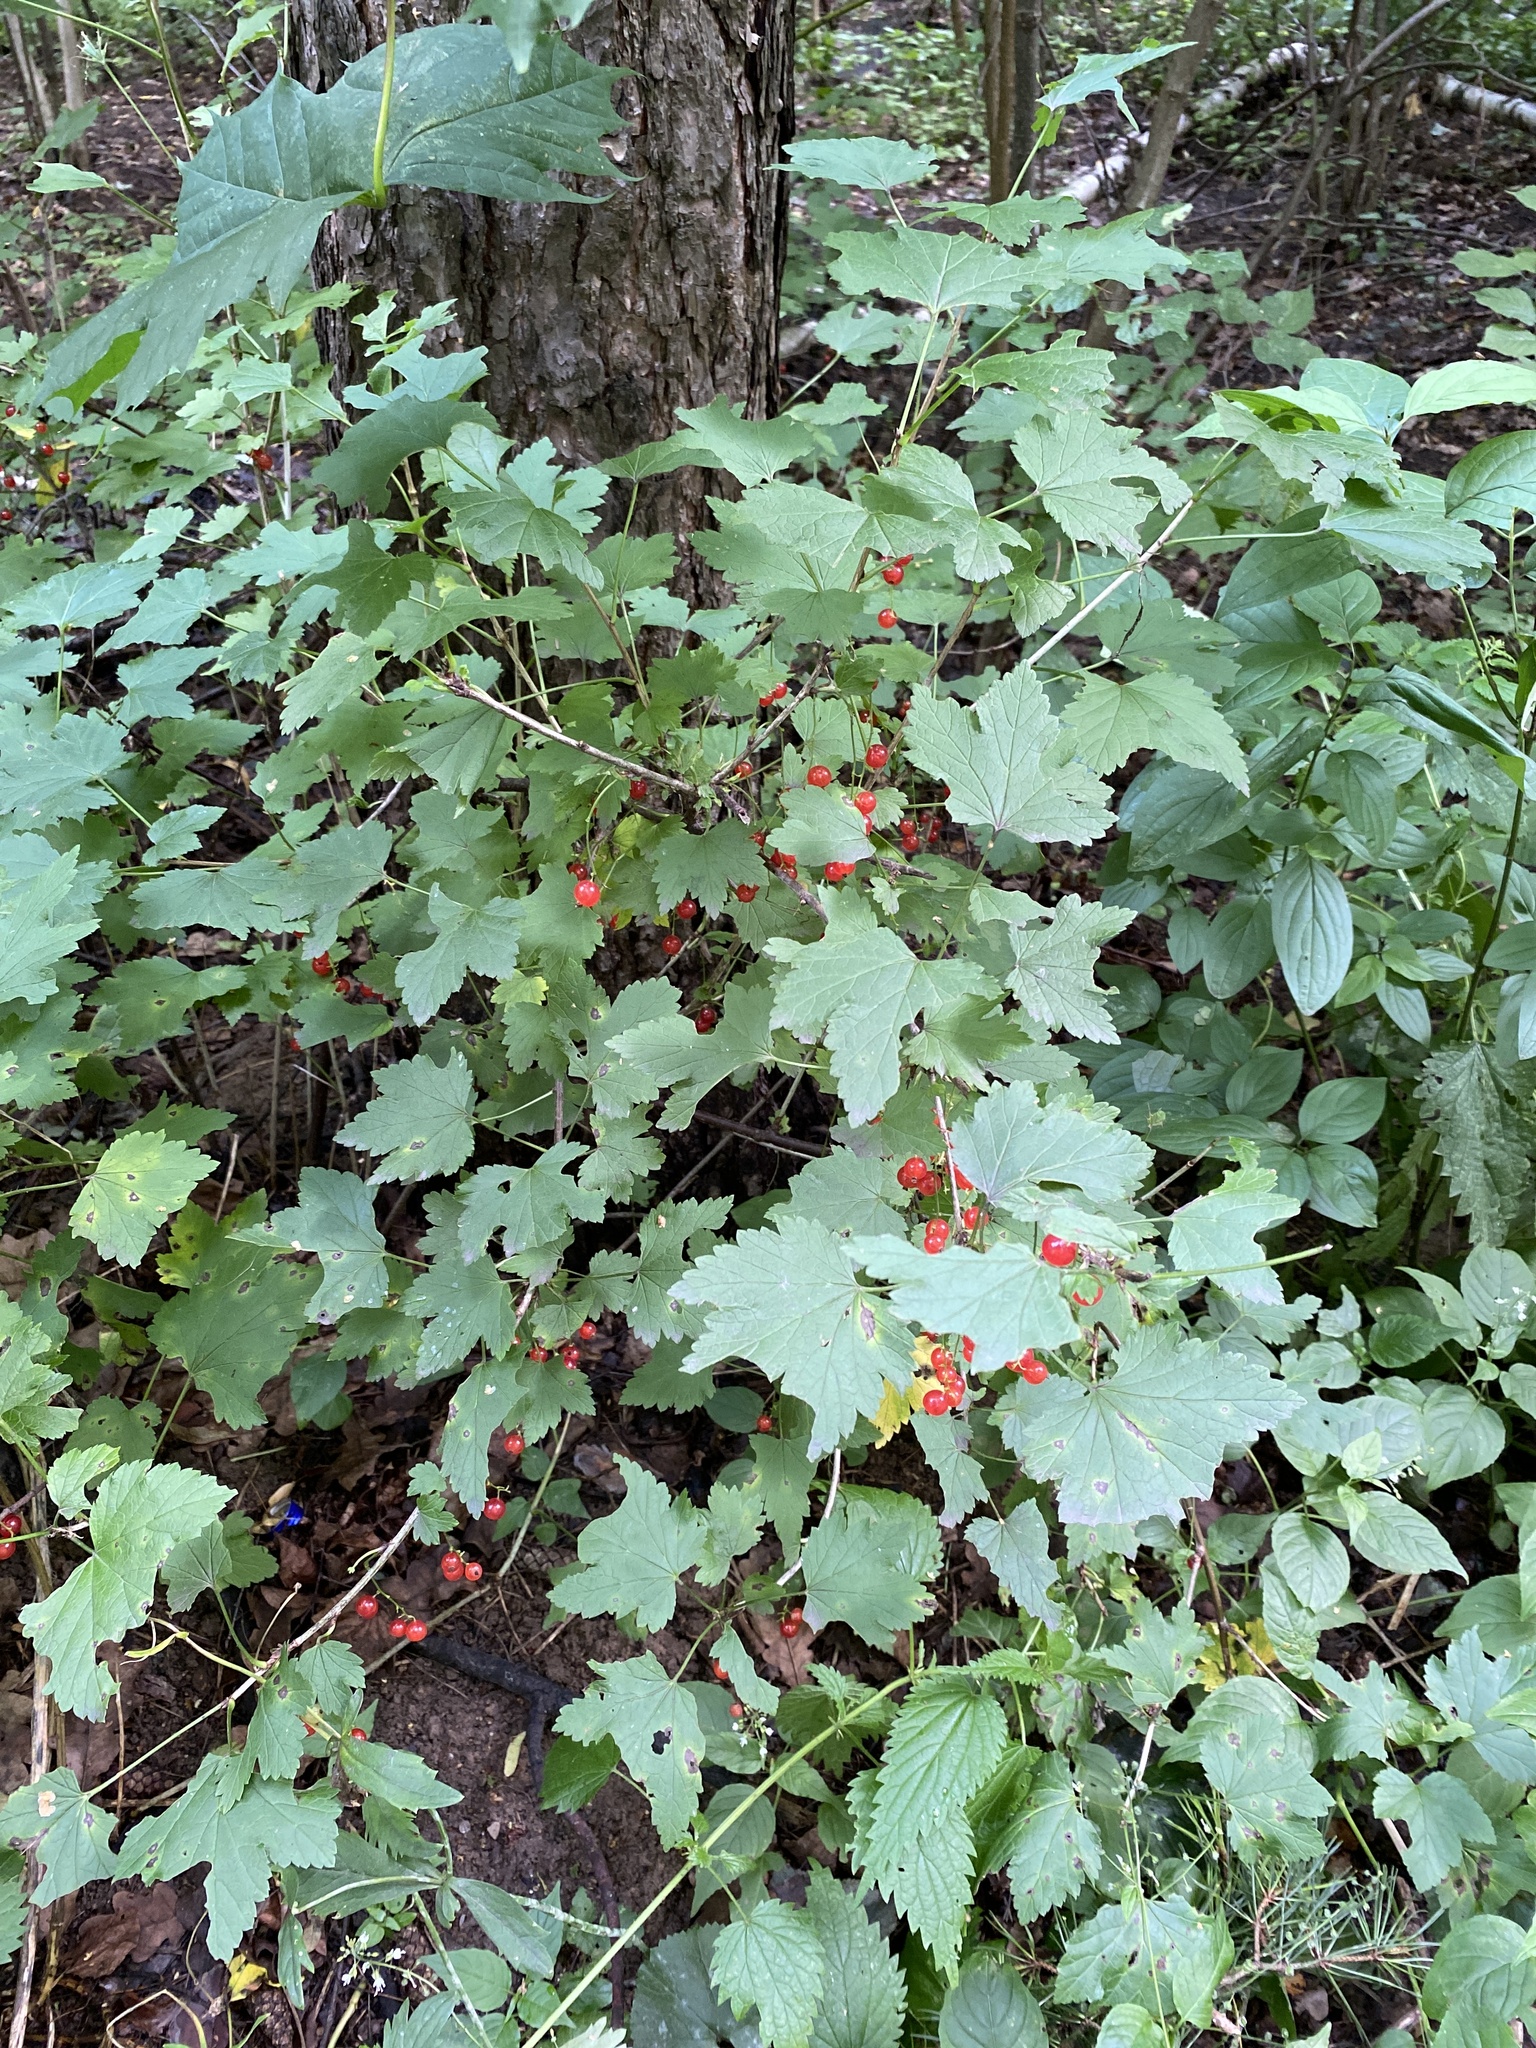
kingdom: Plantae
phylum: Tracheophyta
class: Magnoliopsida
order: Saxifragales
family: Grossulariaceae
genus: Ribes
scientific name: Ribes rubrum
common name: Red currant
